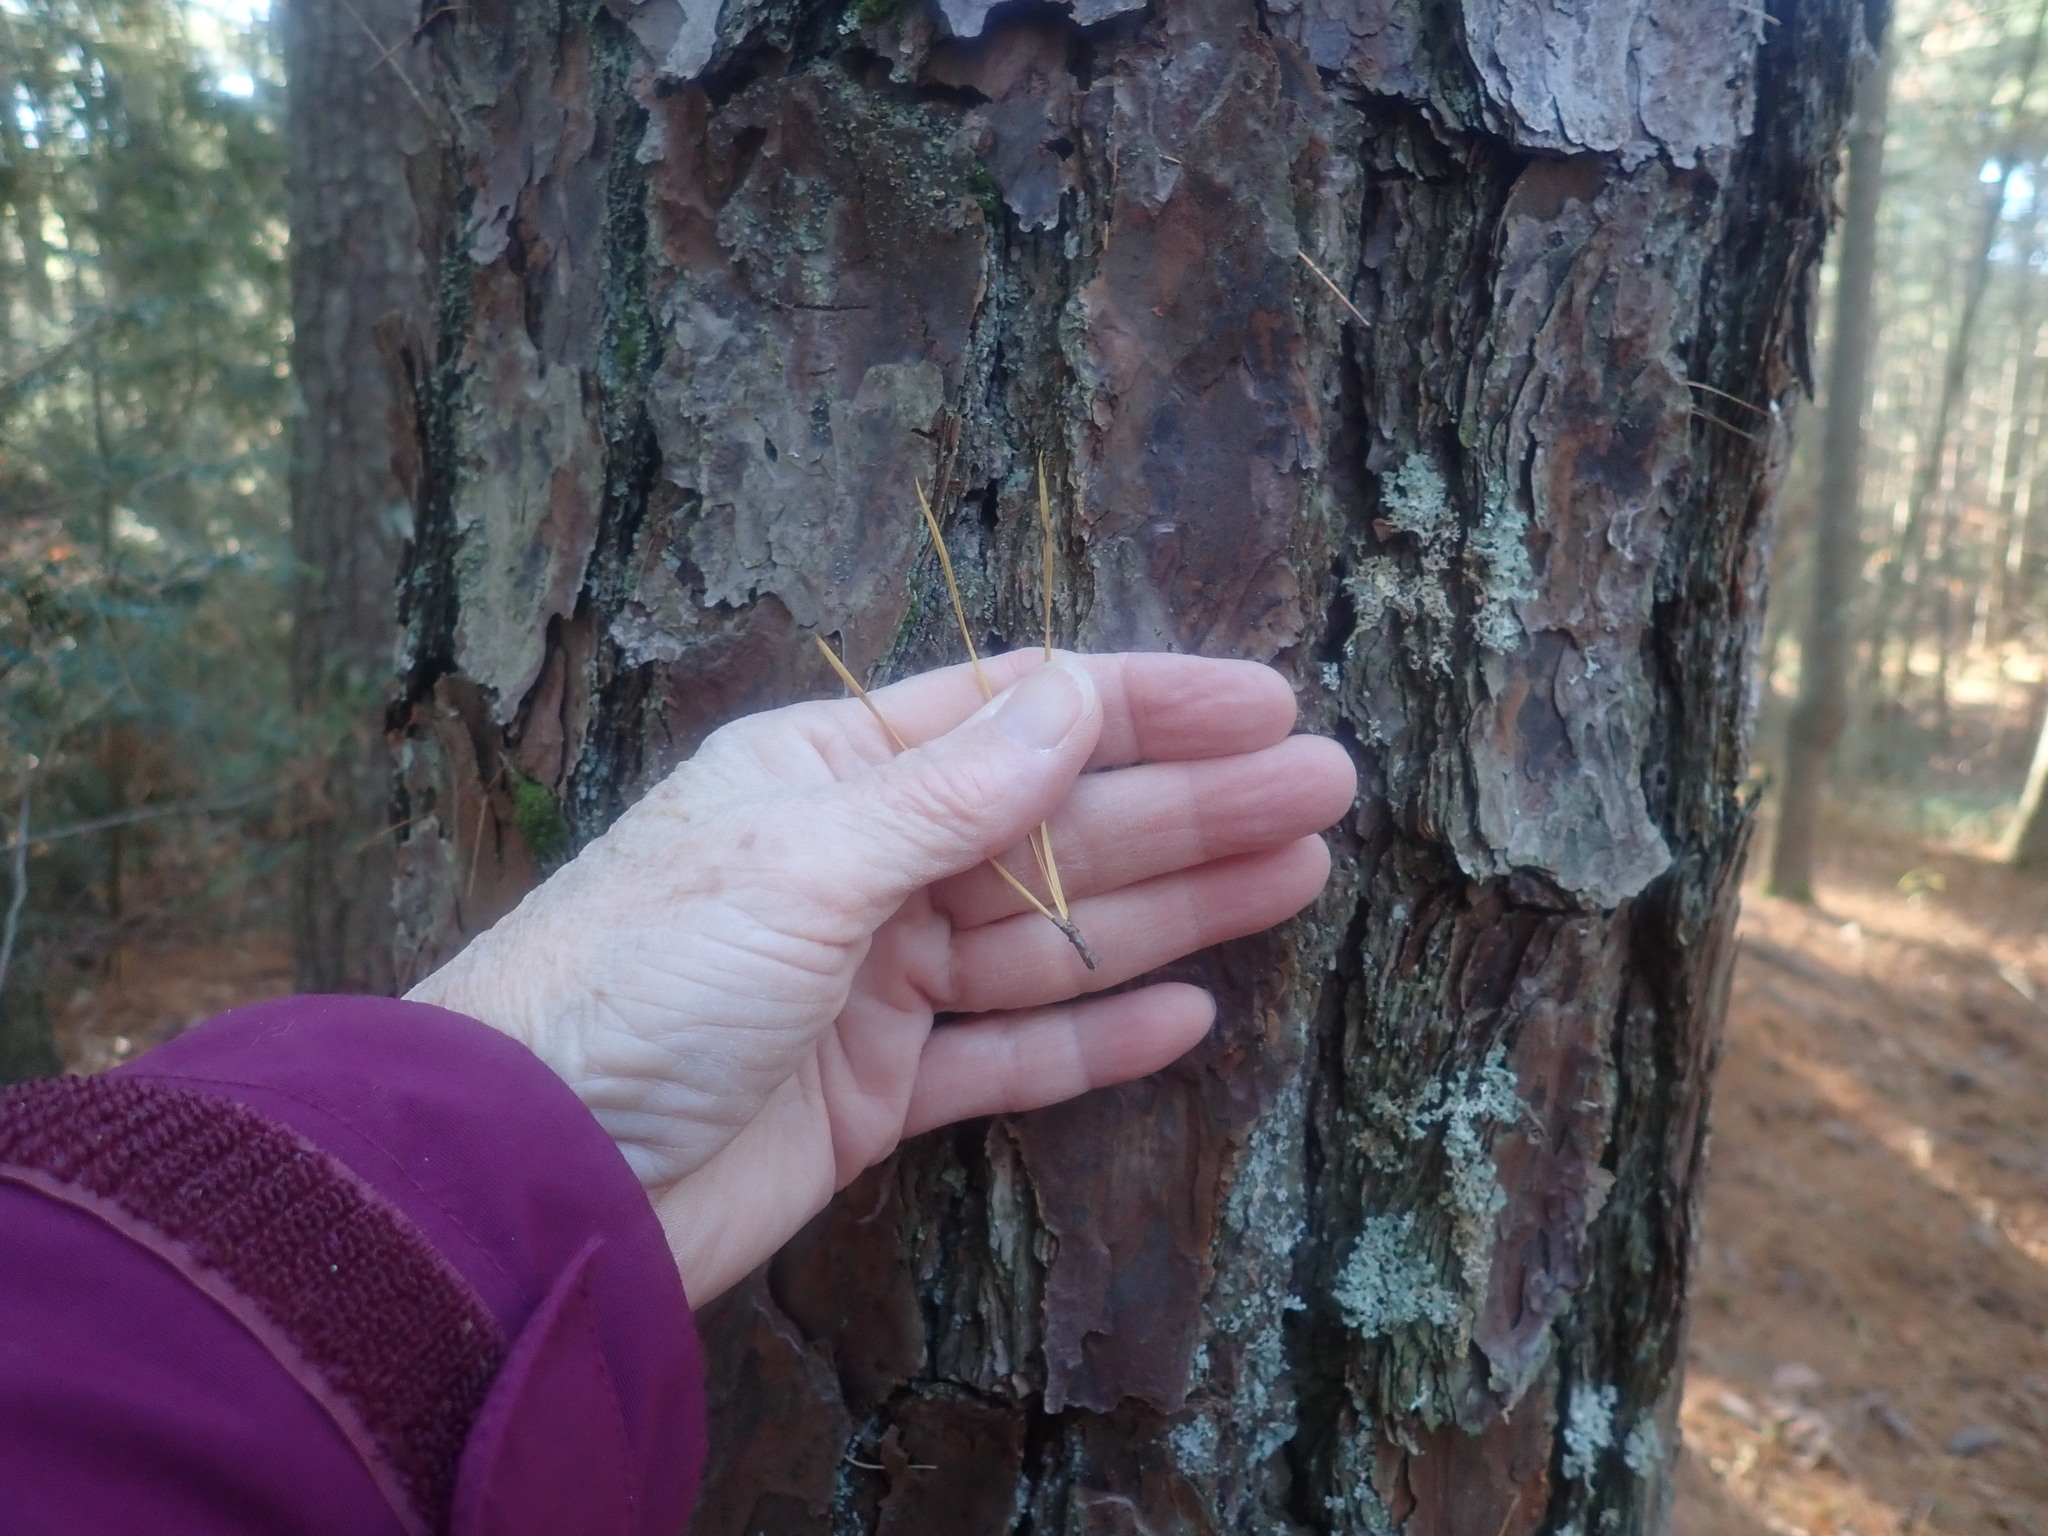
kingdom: Plantae
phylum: Tracheophyta
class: Pinopsida
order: Pinales
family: Pinaceae
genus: Pinus
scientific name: Pinus rigida
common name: Pitch pine
